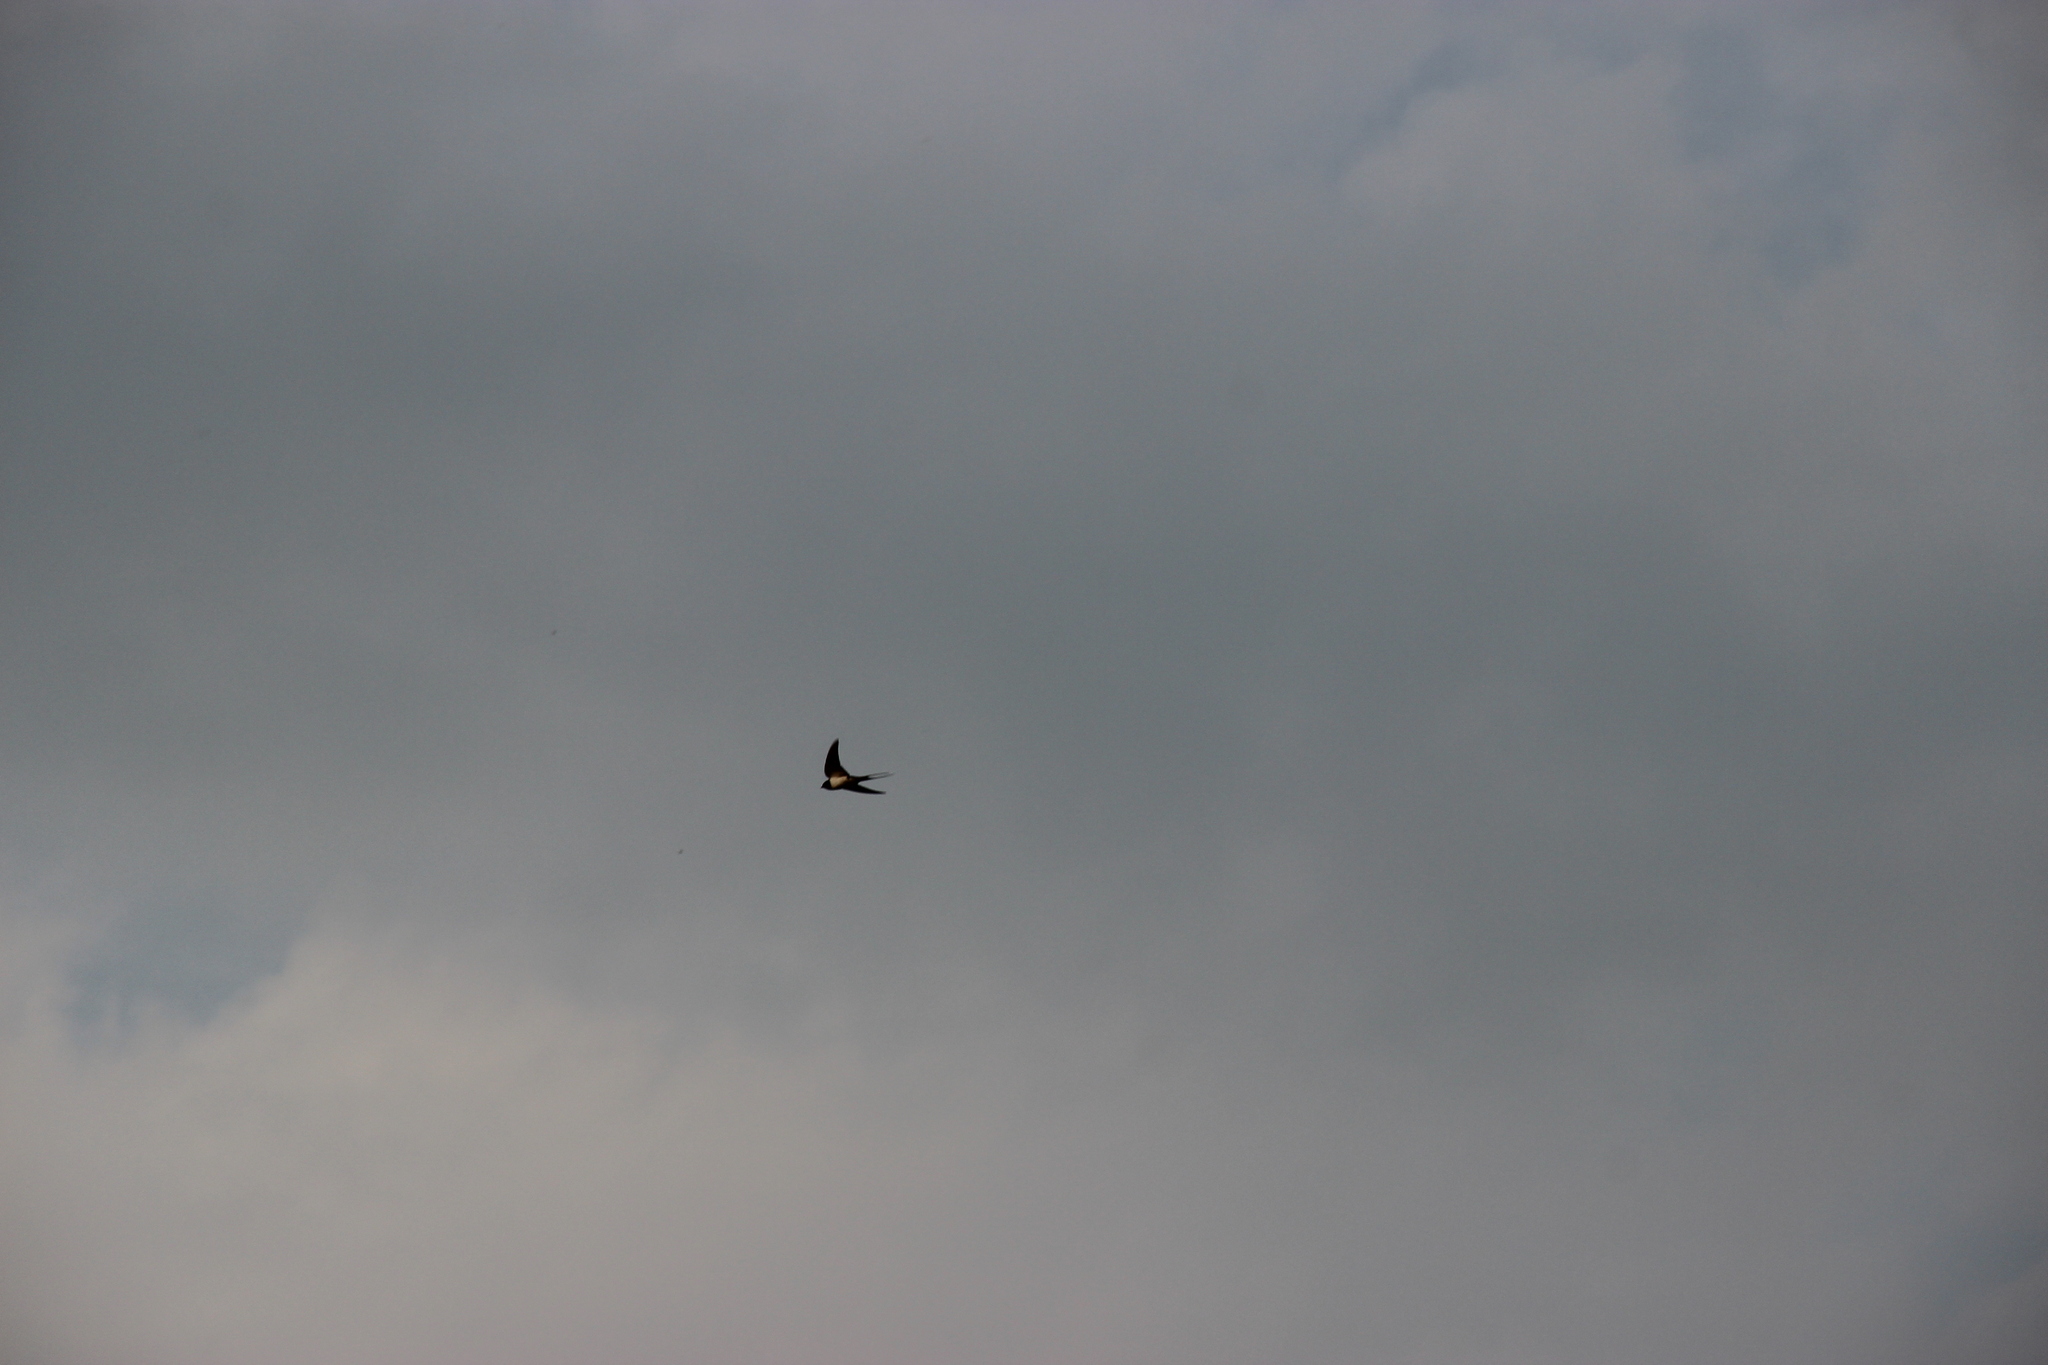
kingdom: Animalia
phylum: Chordata
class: Aves
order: Passeriformes
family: Hirundinidae
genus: Hirundo
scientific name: Hirundo rustica
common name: Barn swallow
